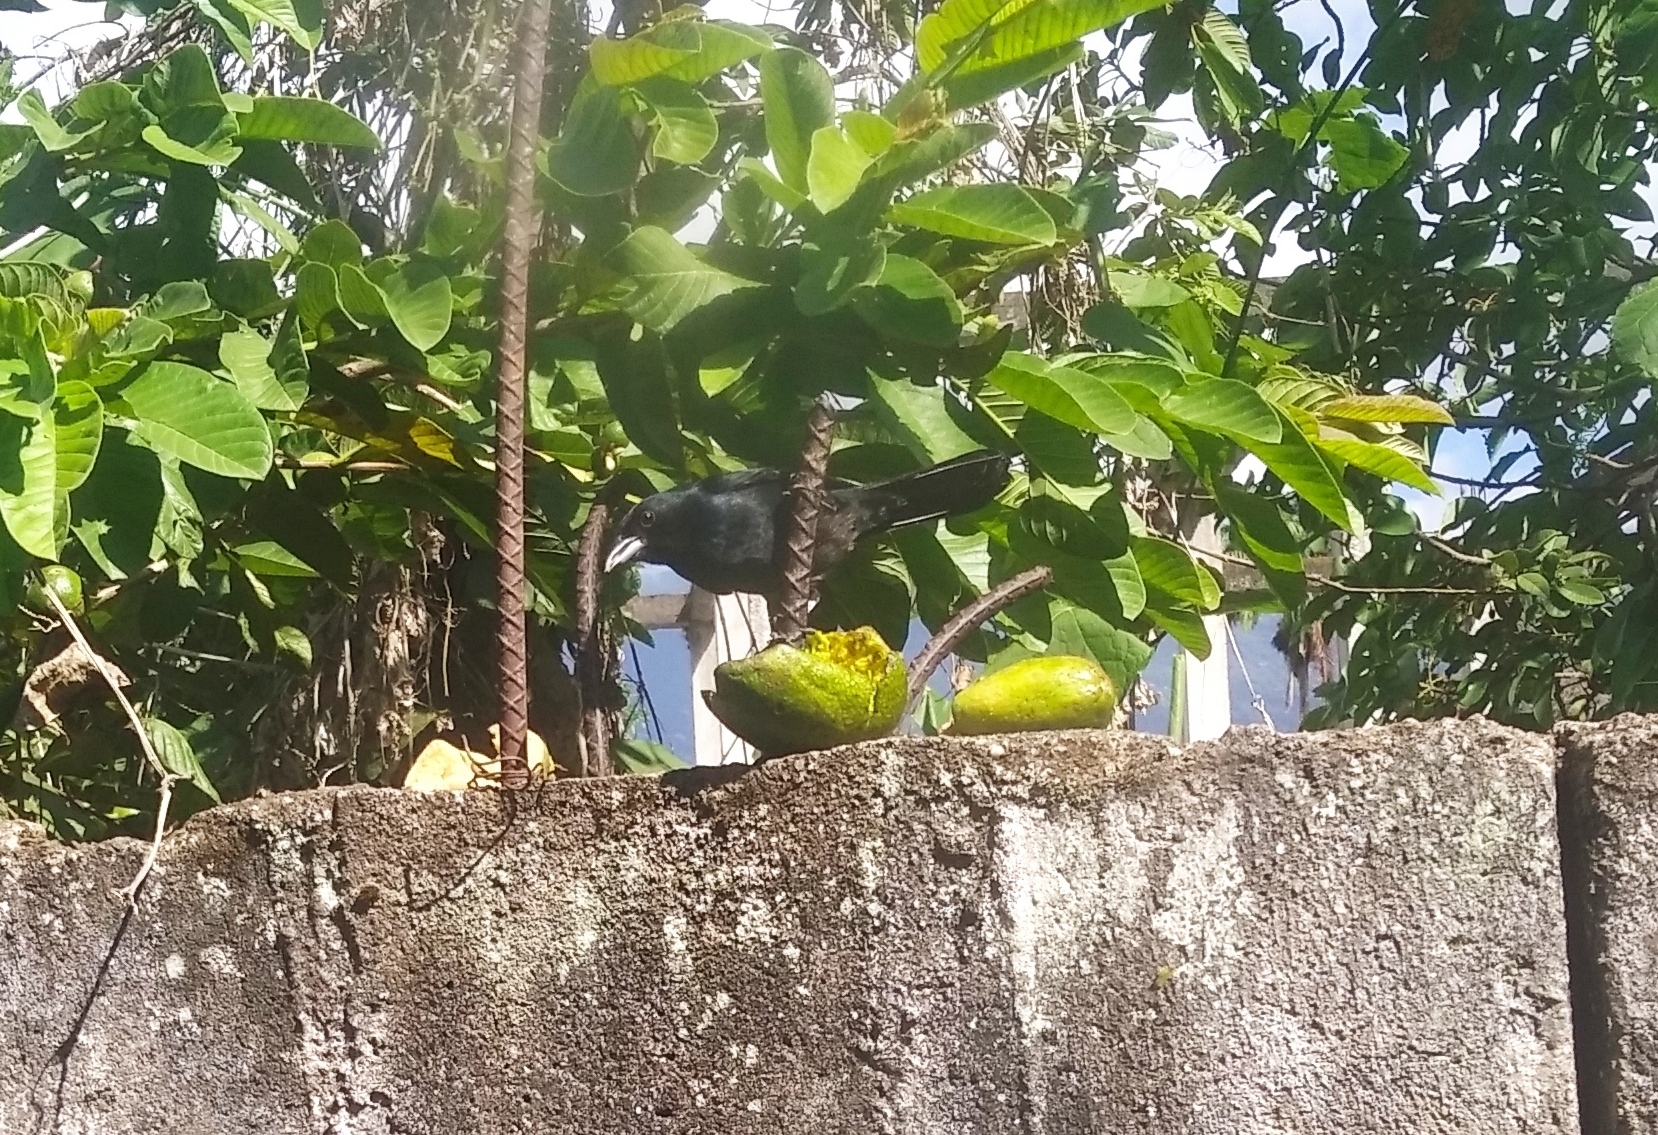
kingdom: Animalia
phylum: Chordata
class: Aves
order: Passeriformes
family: Thraupidae
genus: Tachyphonus
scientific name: Tachyphonus rufus
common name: White-lined tanager
